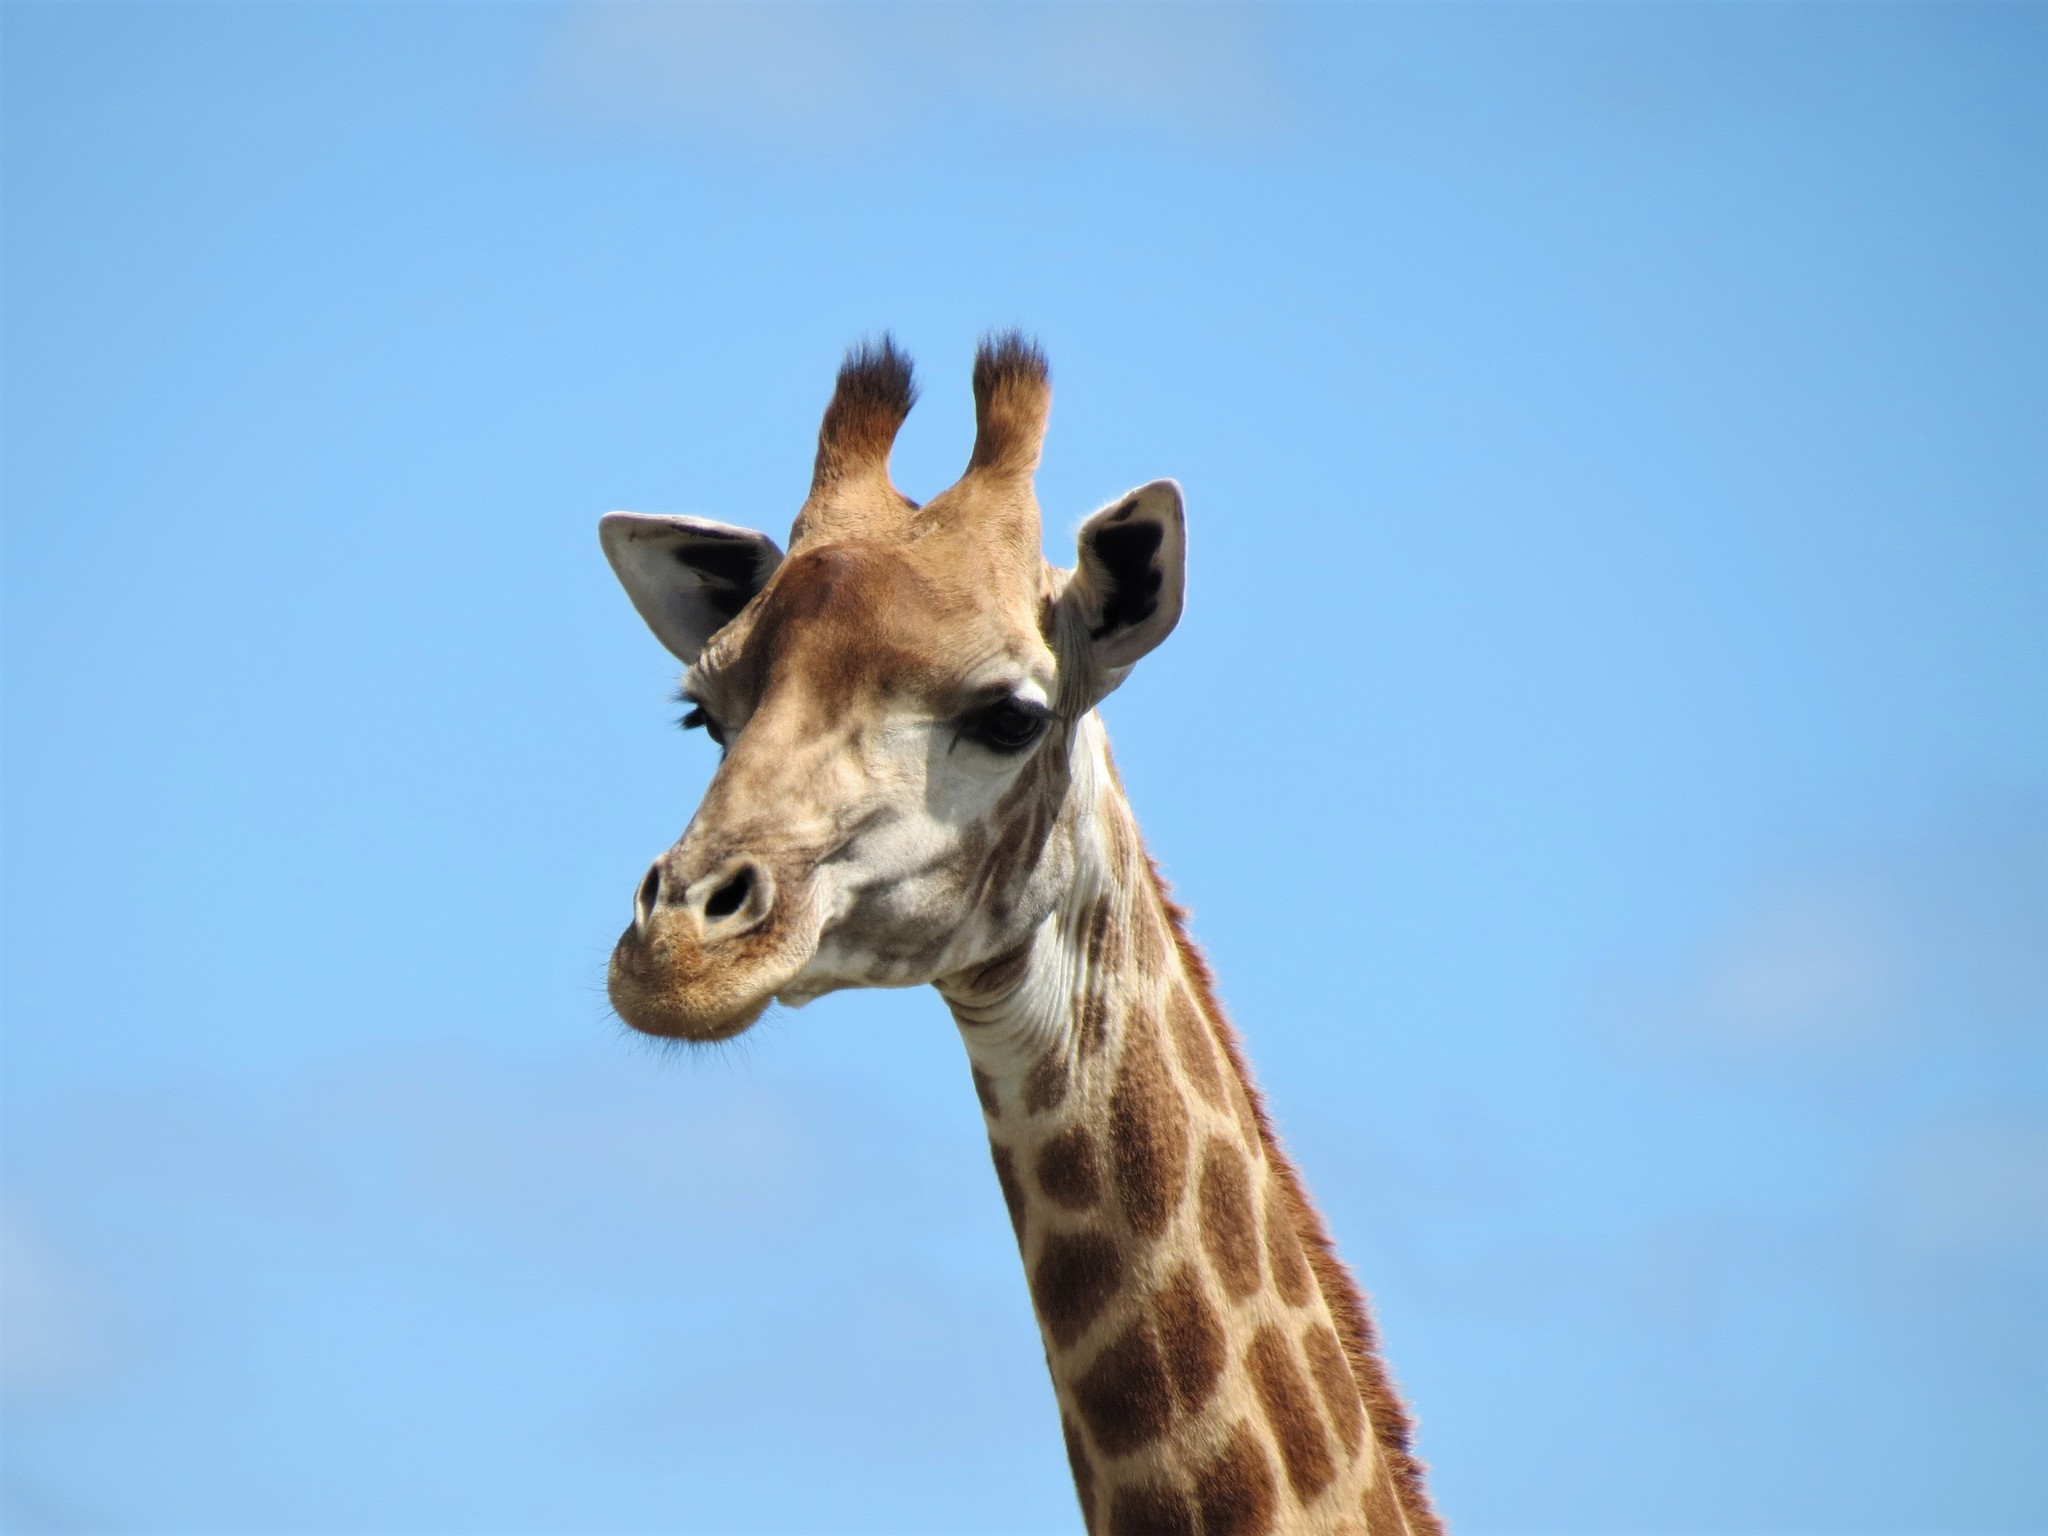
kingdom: Animalia
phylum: Chordata
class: Mammalia
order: Artiodactyla
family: Giraffidae
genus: Giraffa
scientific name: Giraffa giraffa
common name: Southern giraffe
